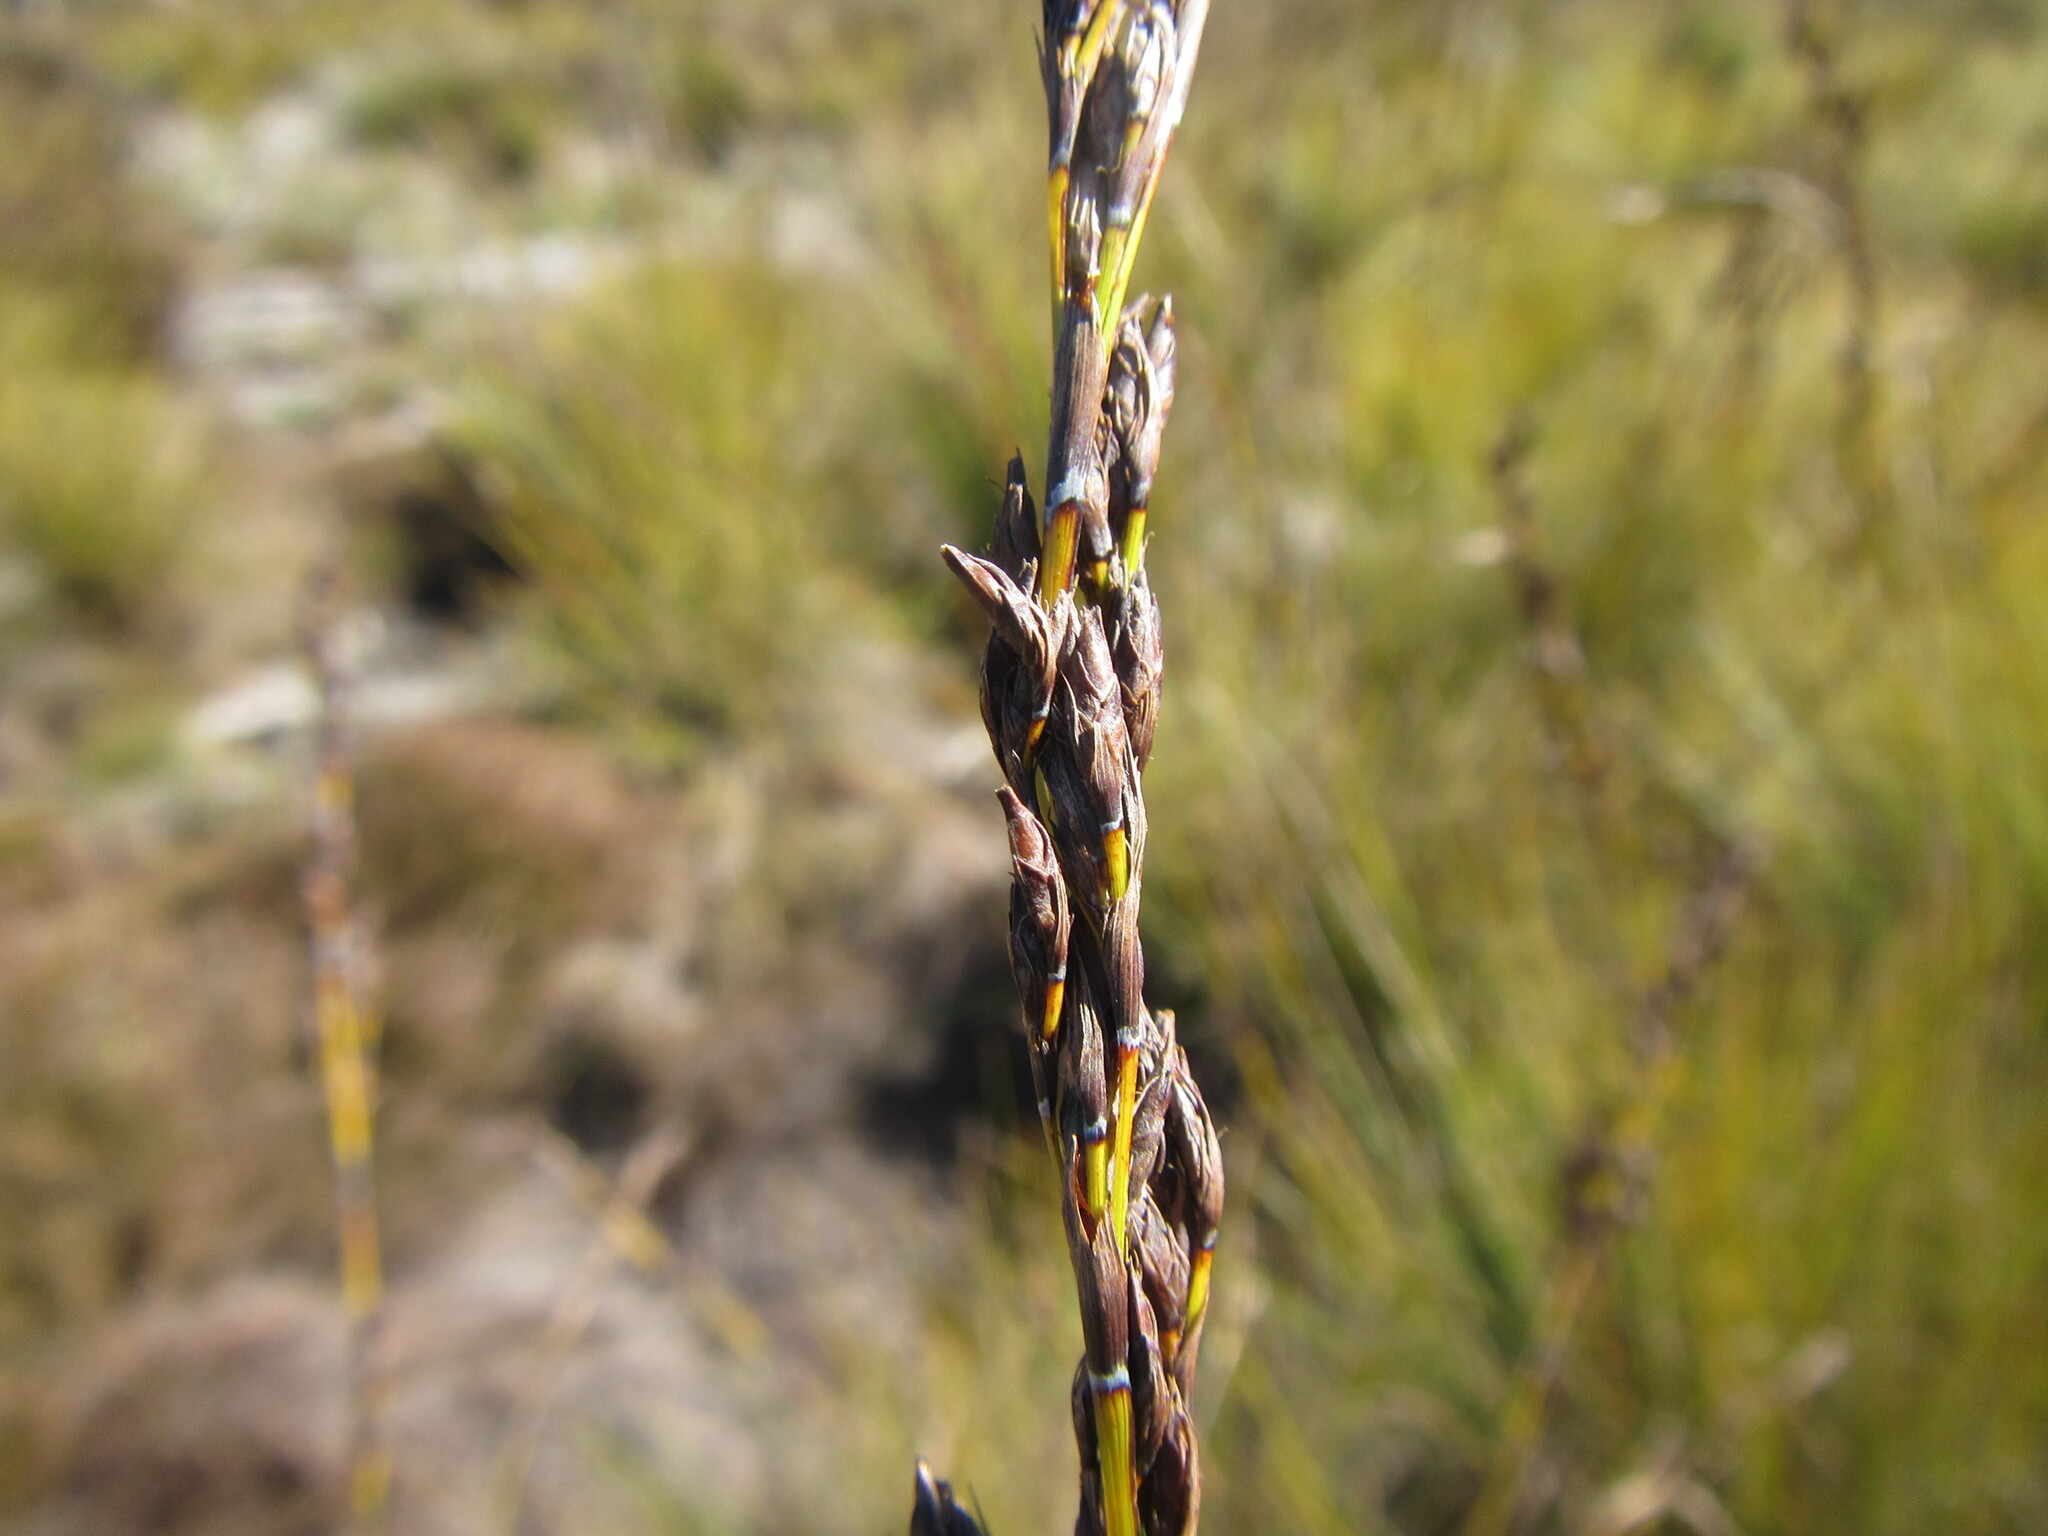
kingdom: Plantae
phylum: Tracheophyta
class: Liliopsida
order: Poales
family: Cyperaceae
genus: Tetraria
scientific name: Tetraria capillacea
